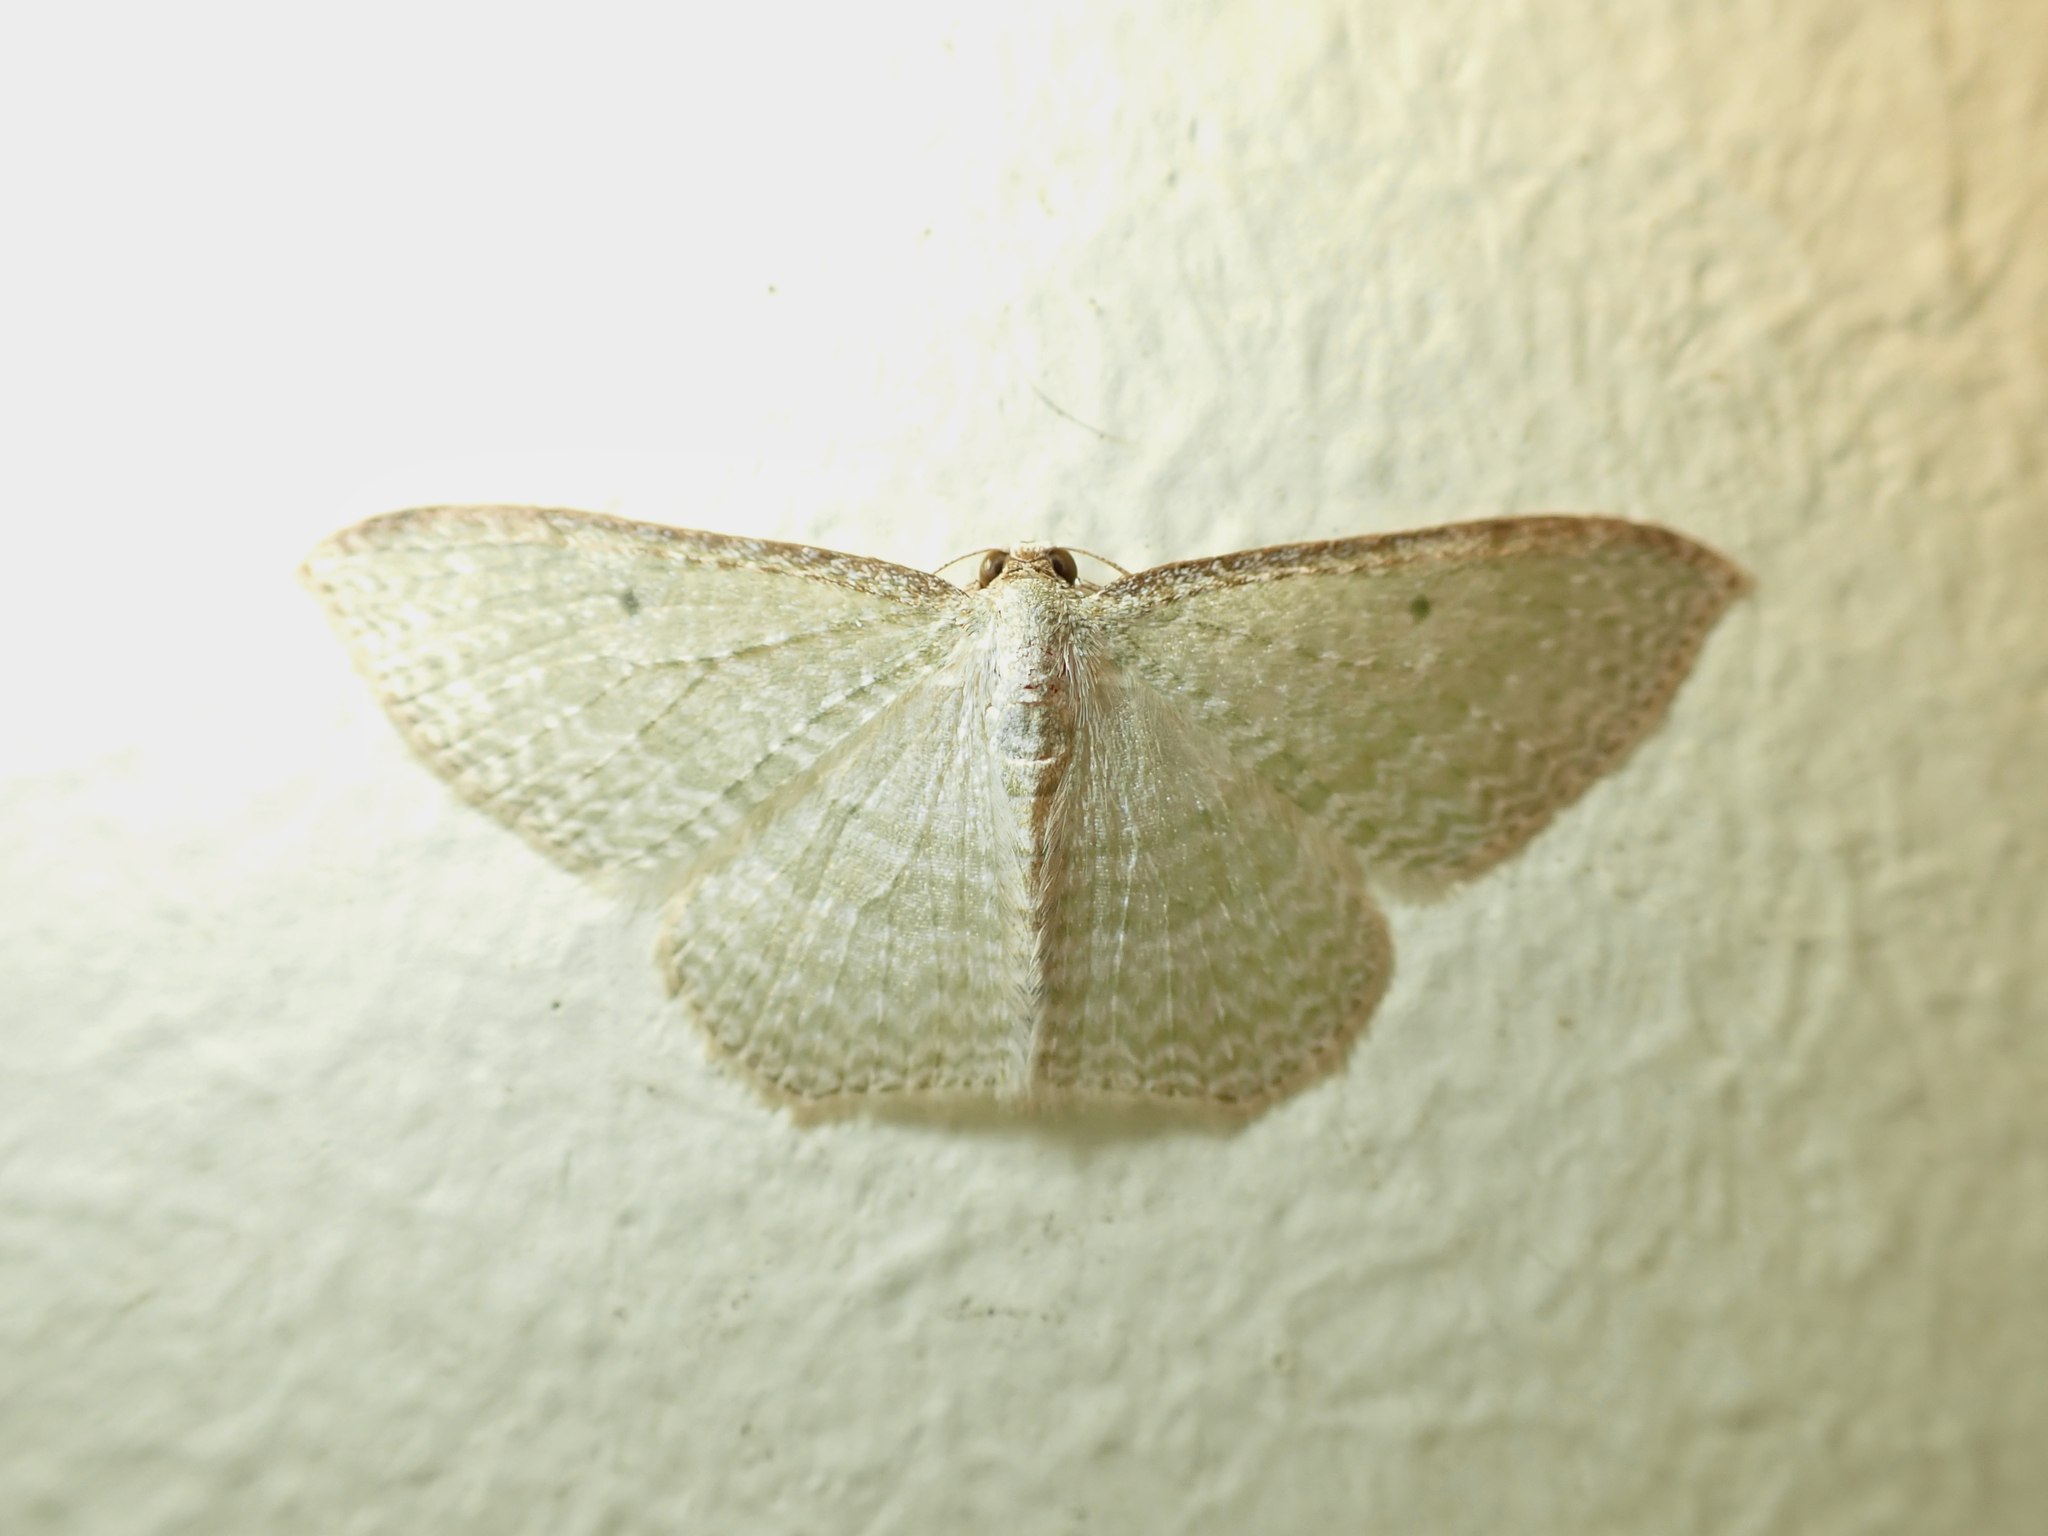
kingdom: Animalia
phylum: Arthropoda
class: Insecta
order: Lepidoptera
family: Geometridae
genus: Poecilasthena
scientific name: Poecilasthena pulchraria
